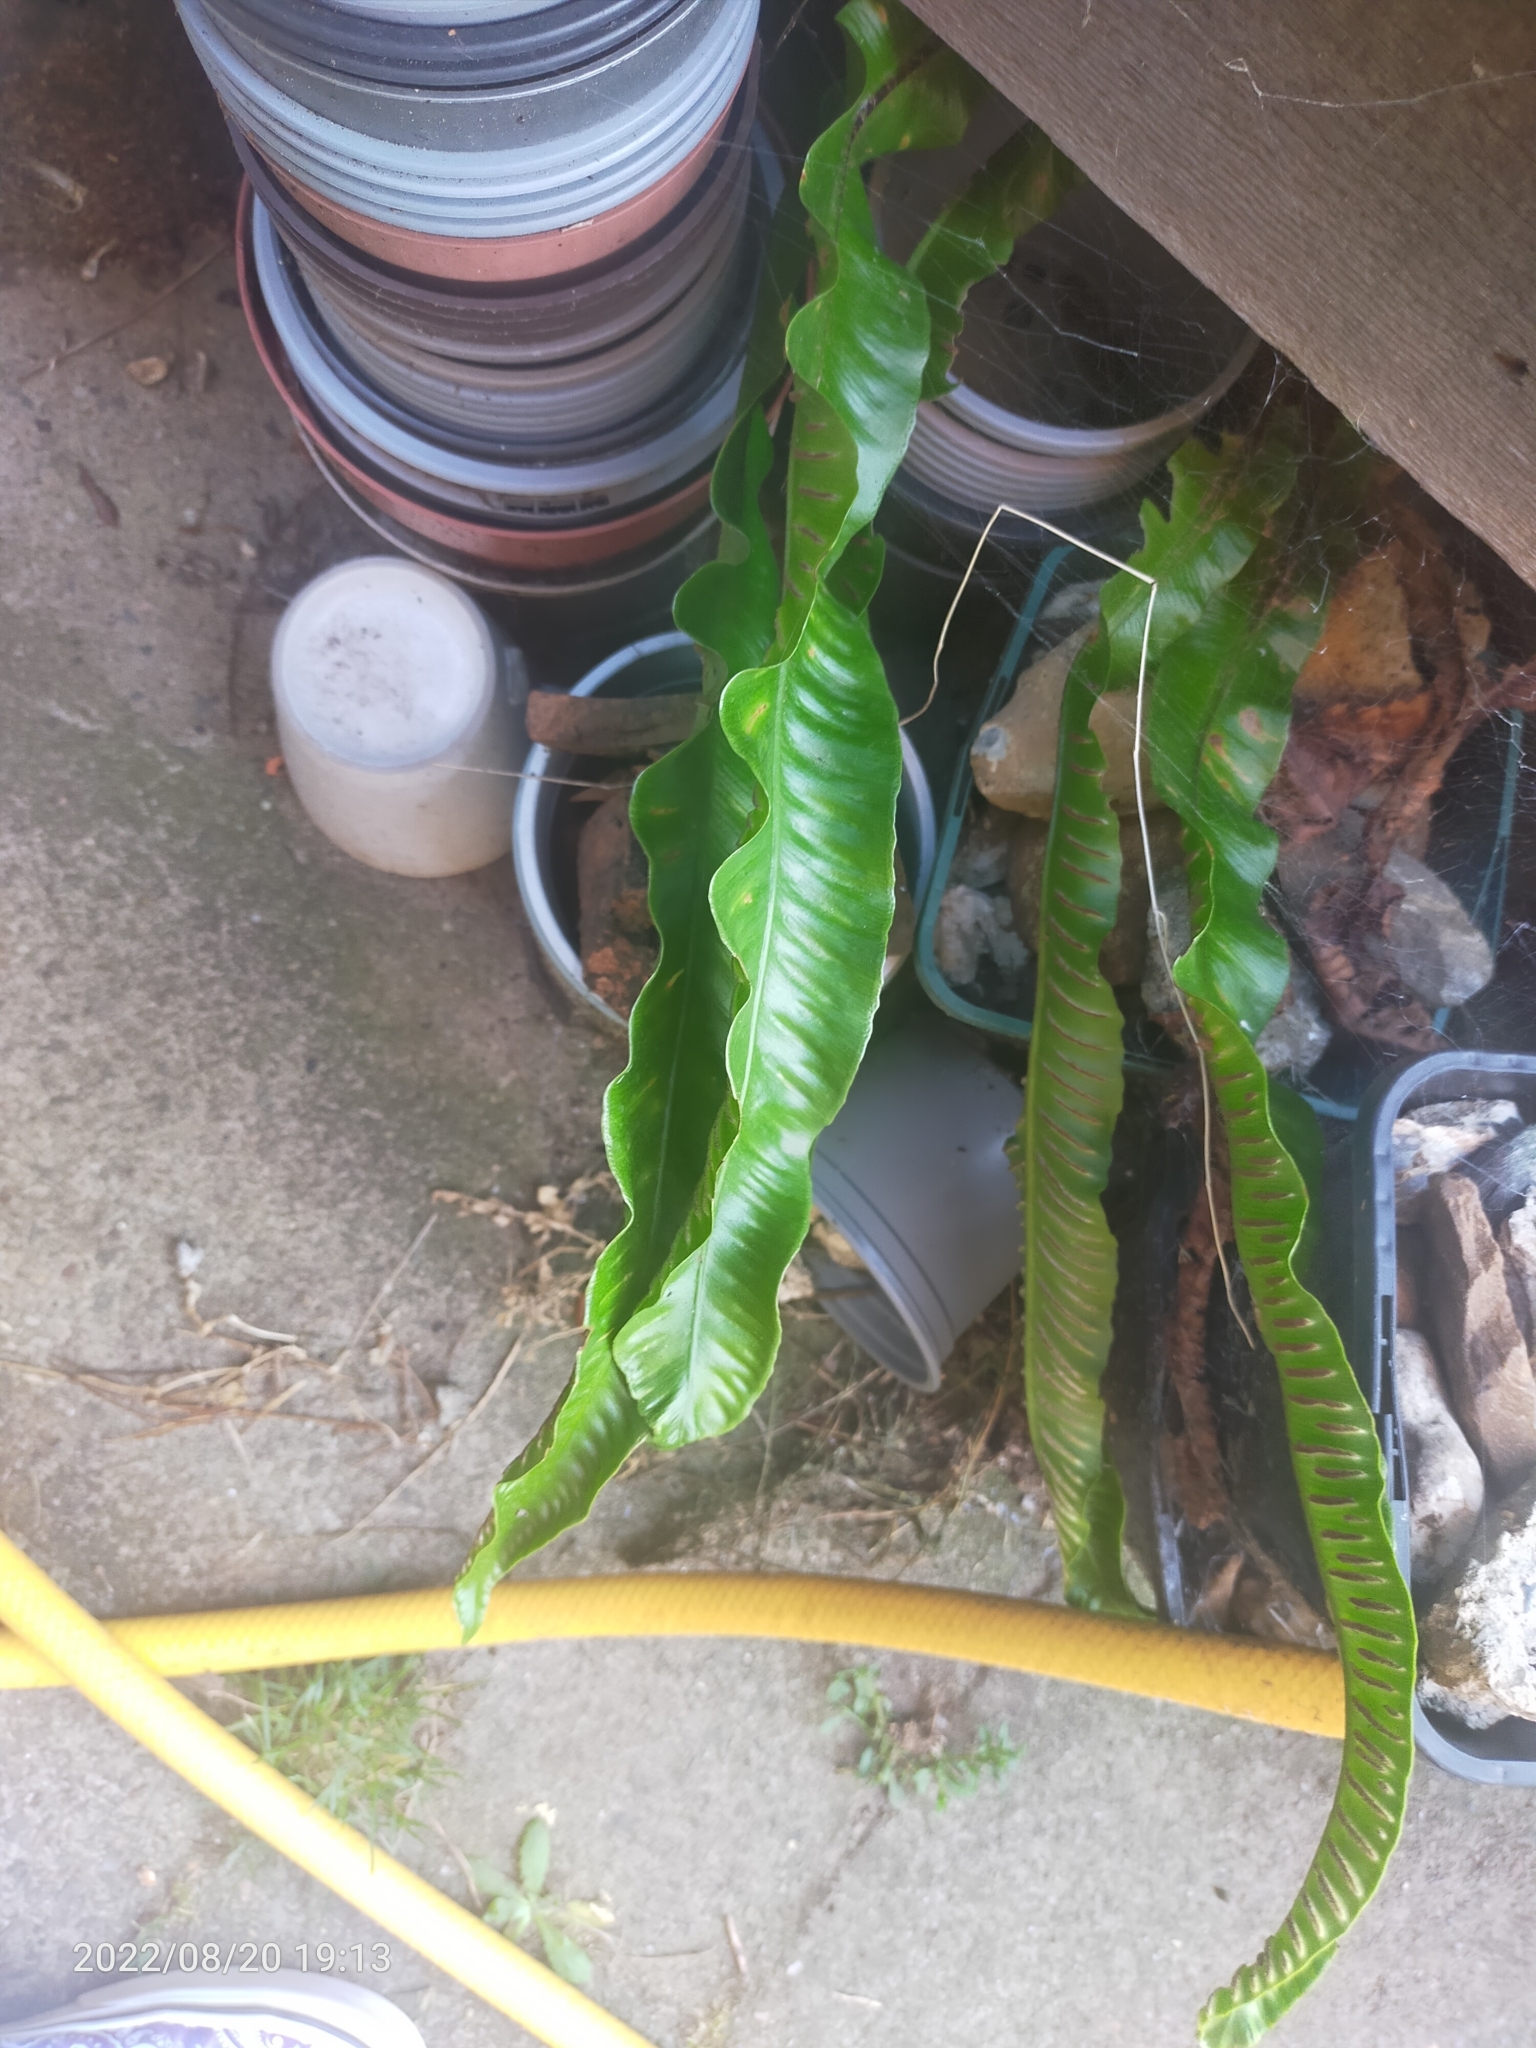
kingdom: Plantae
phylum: Tracheophyta
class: Polypodiopsida
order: Polypodiales
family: Aspleniaceae
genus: Asplenium
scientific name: Asplenium scolopendrium
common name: Hart's-tongue fern
